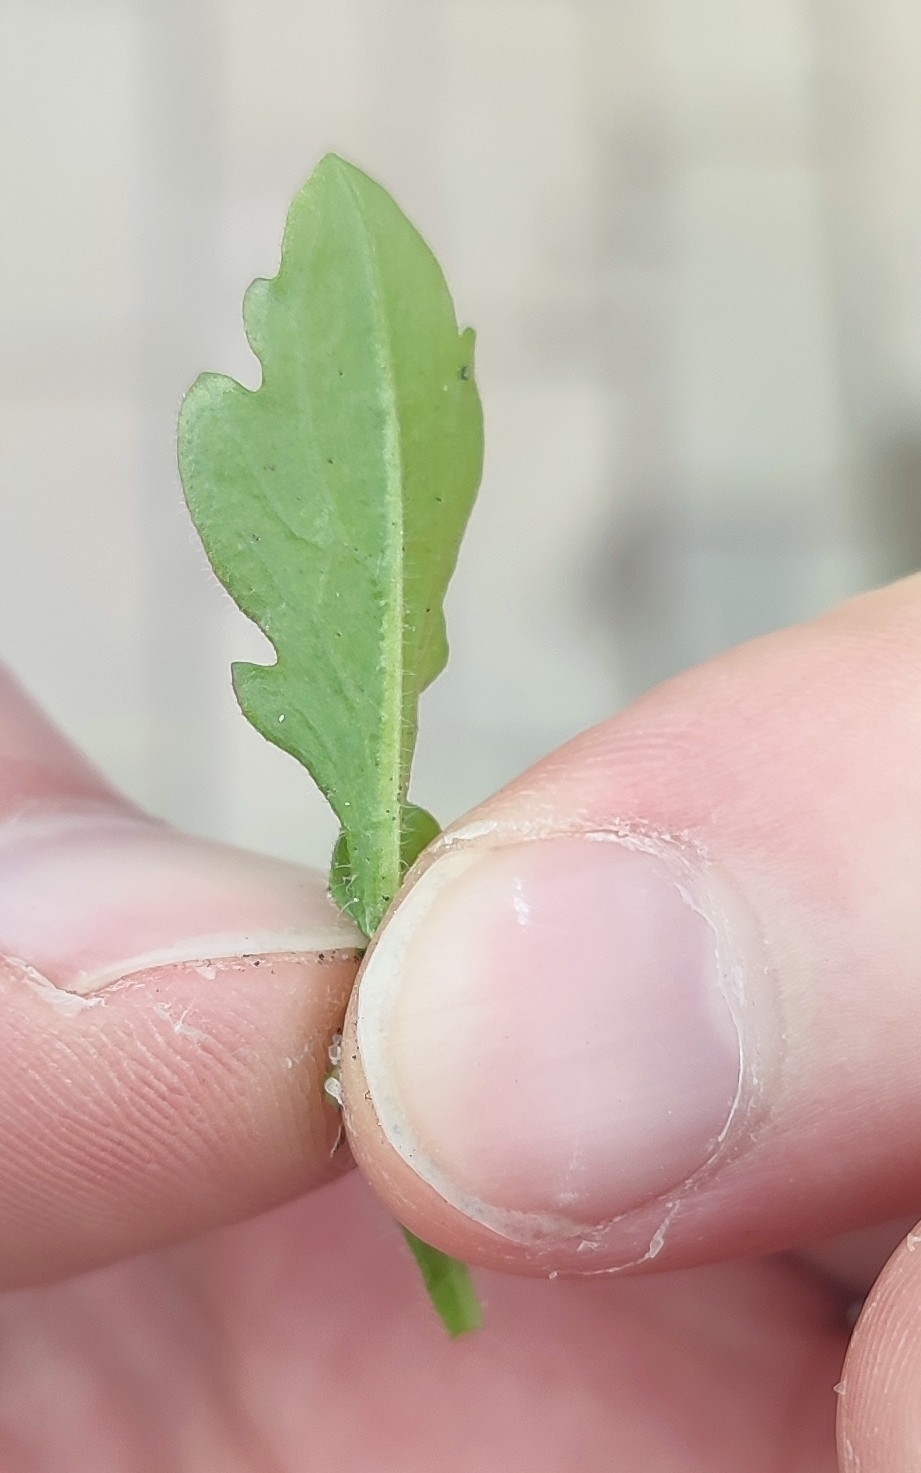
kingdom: Plantae
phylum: Tracheophyta
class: Magnoliopsida
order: Asterales
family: Asteraceae
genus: Erigeron
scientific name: Erigeron canadensis
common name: Canadian fleabane
